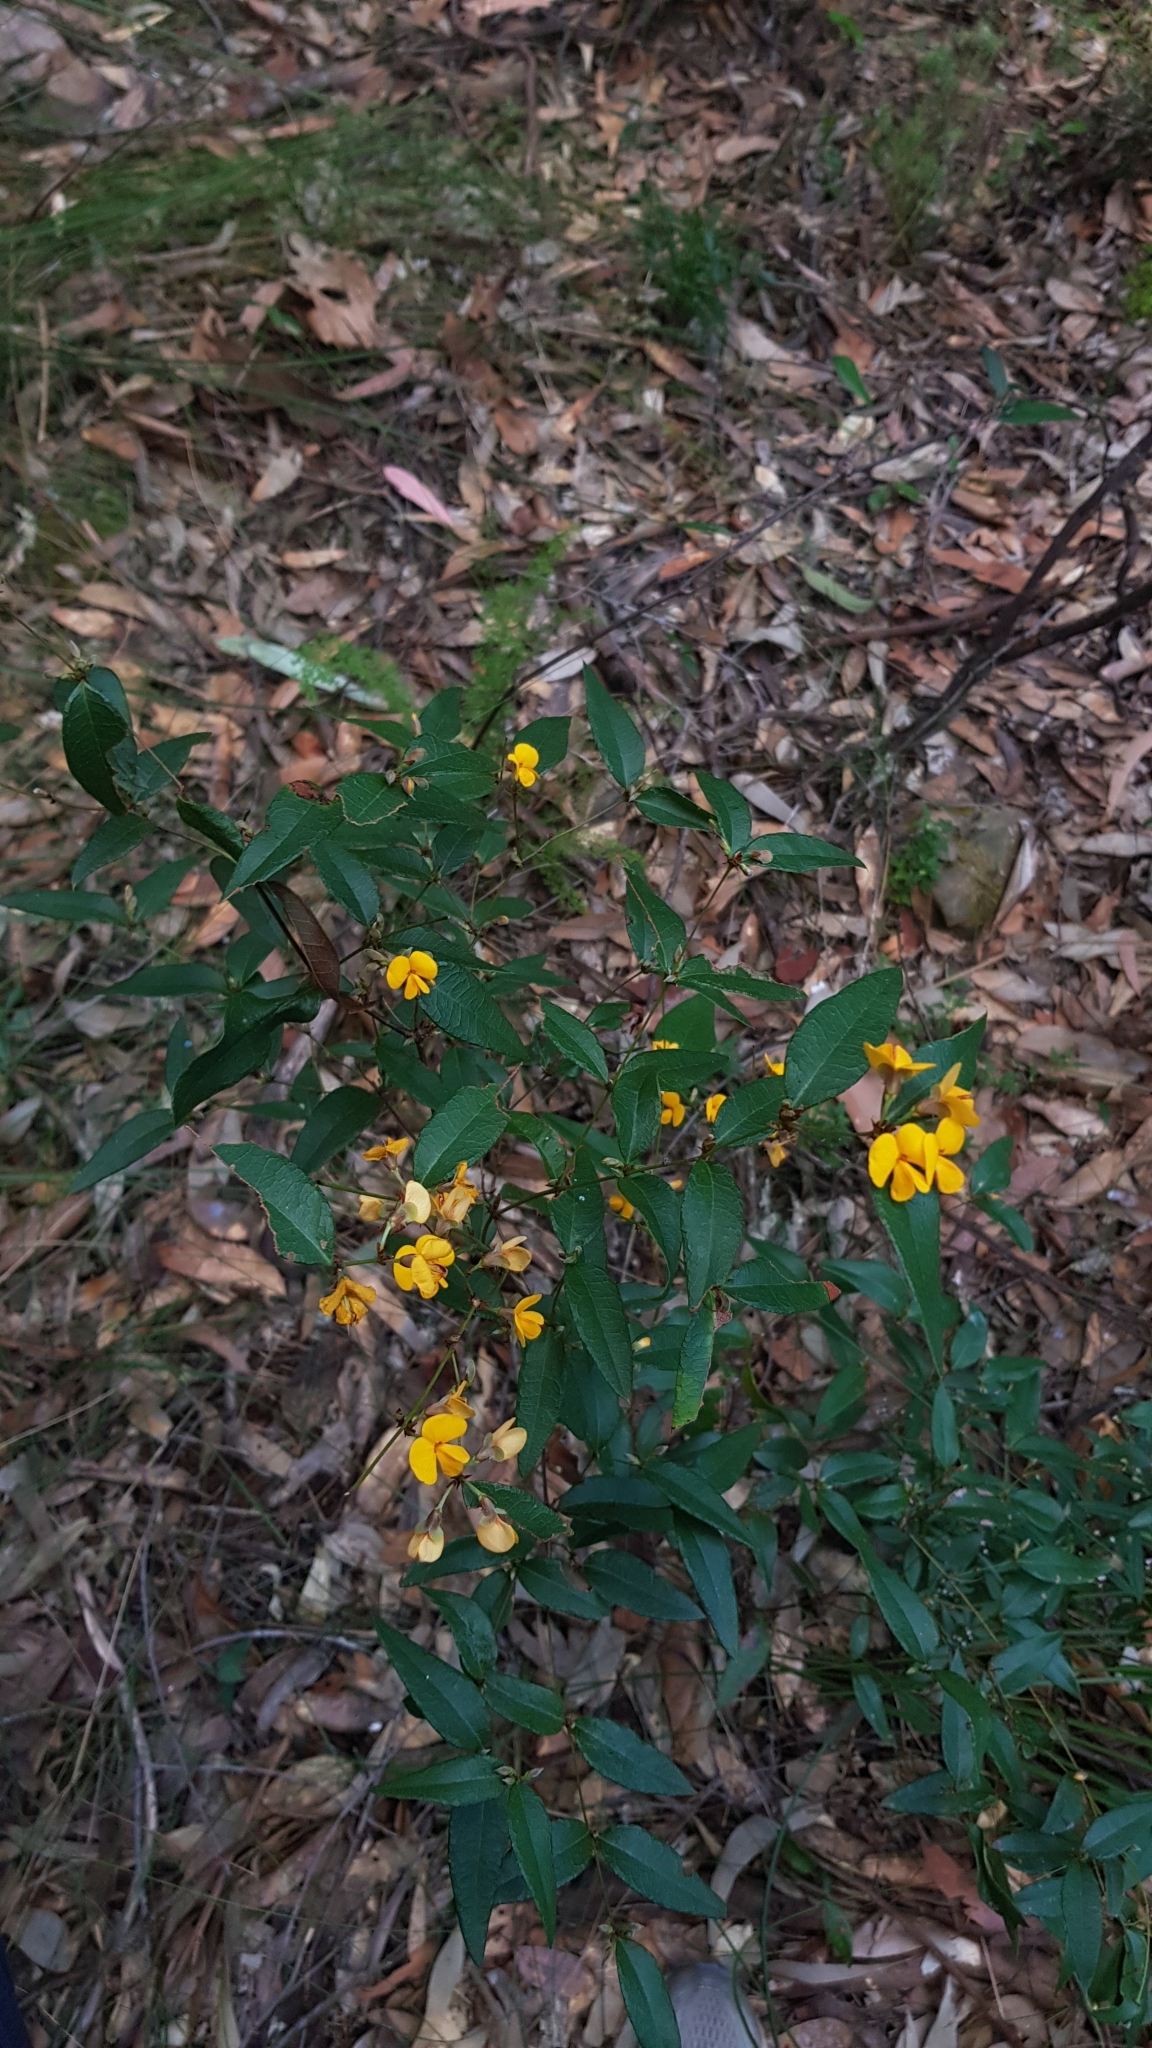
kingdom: Plantae
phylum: Tracheophyta
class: Magnoliopsida
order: Fabales
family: Fabaceae
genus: Platylobium
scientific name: Platylobium formosum
